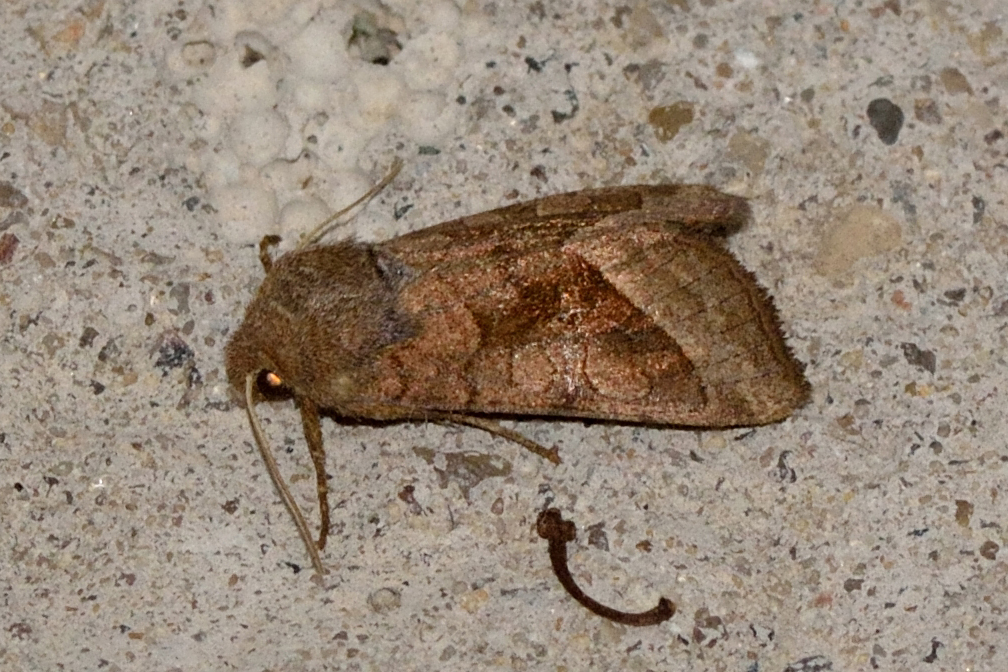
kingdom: Animalia
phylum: Arthropoda
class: Insecta
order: Lepidoptera
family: Noctuidae
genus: Hydraecia
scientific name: Hydraecia micacea
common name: Rosy rustic
